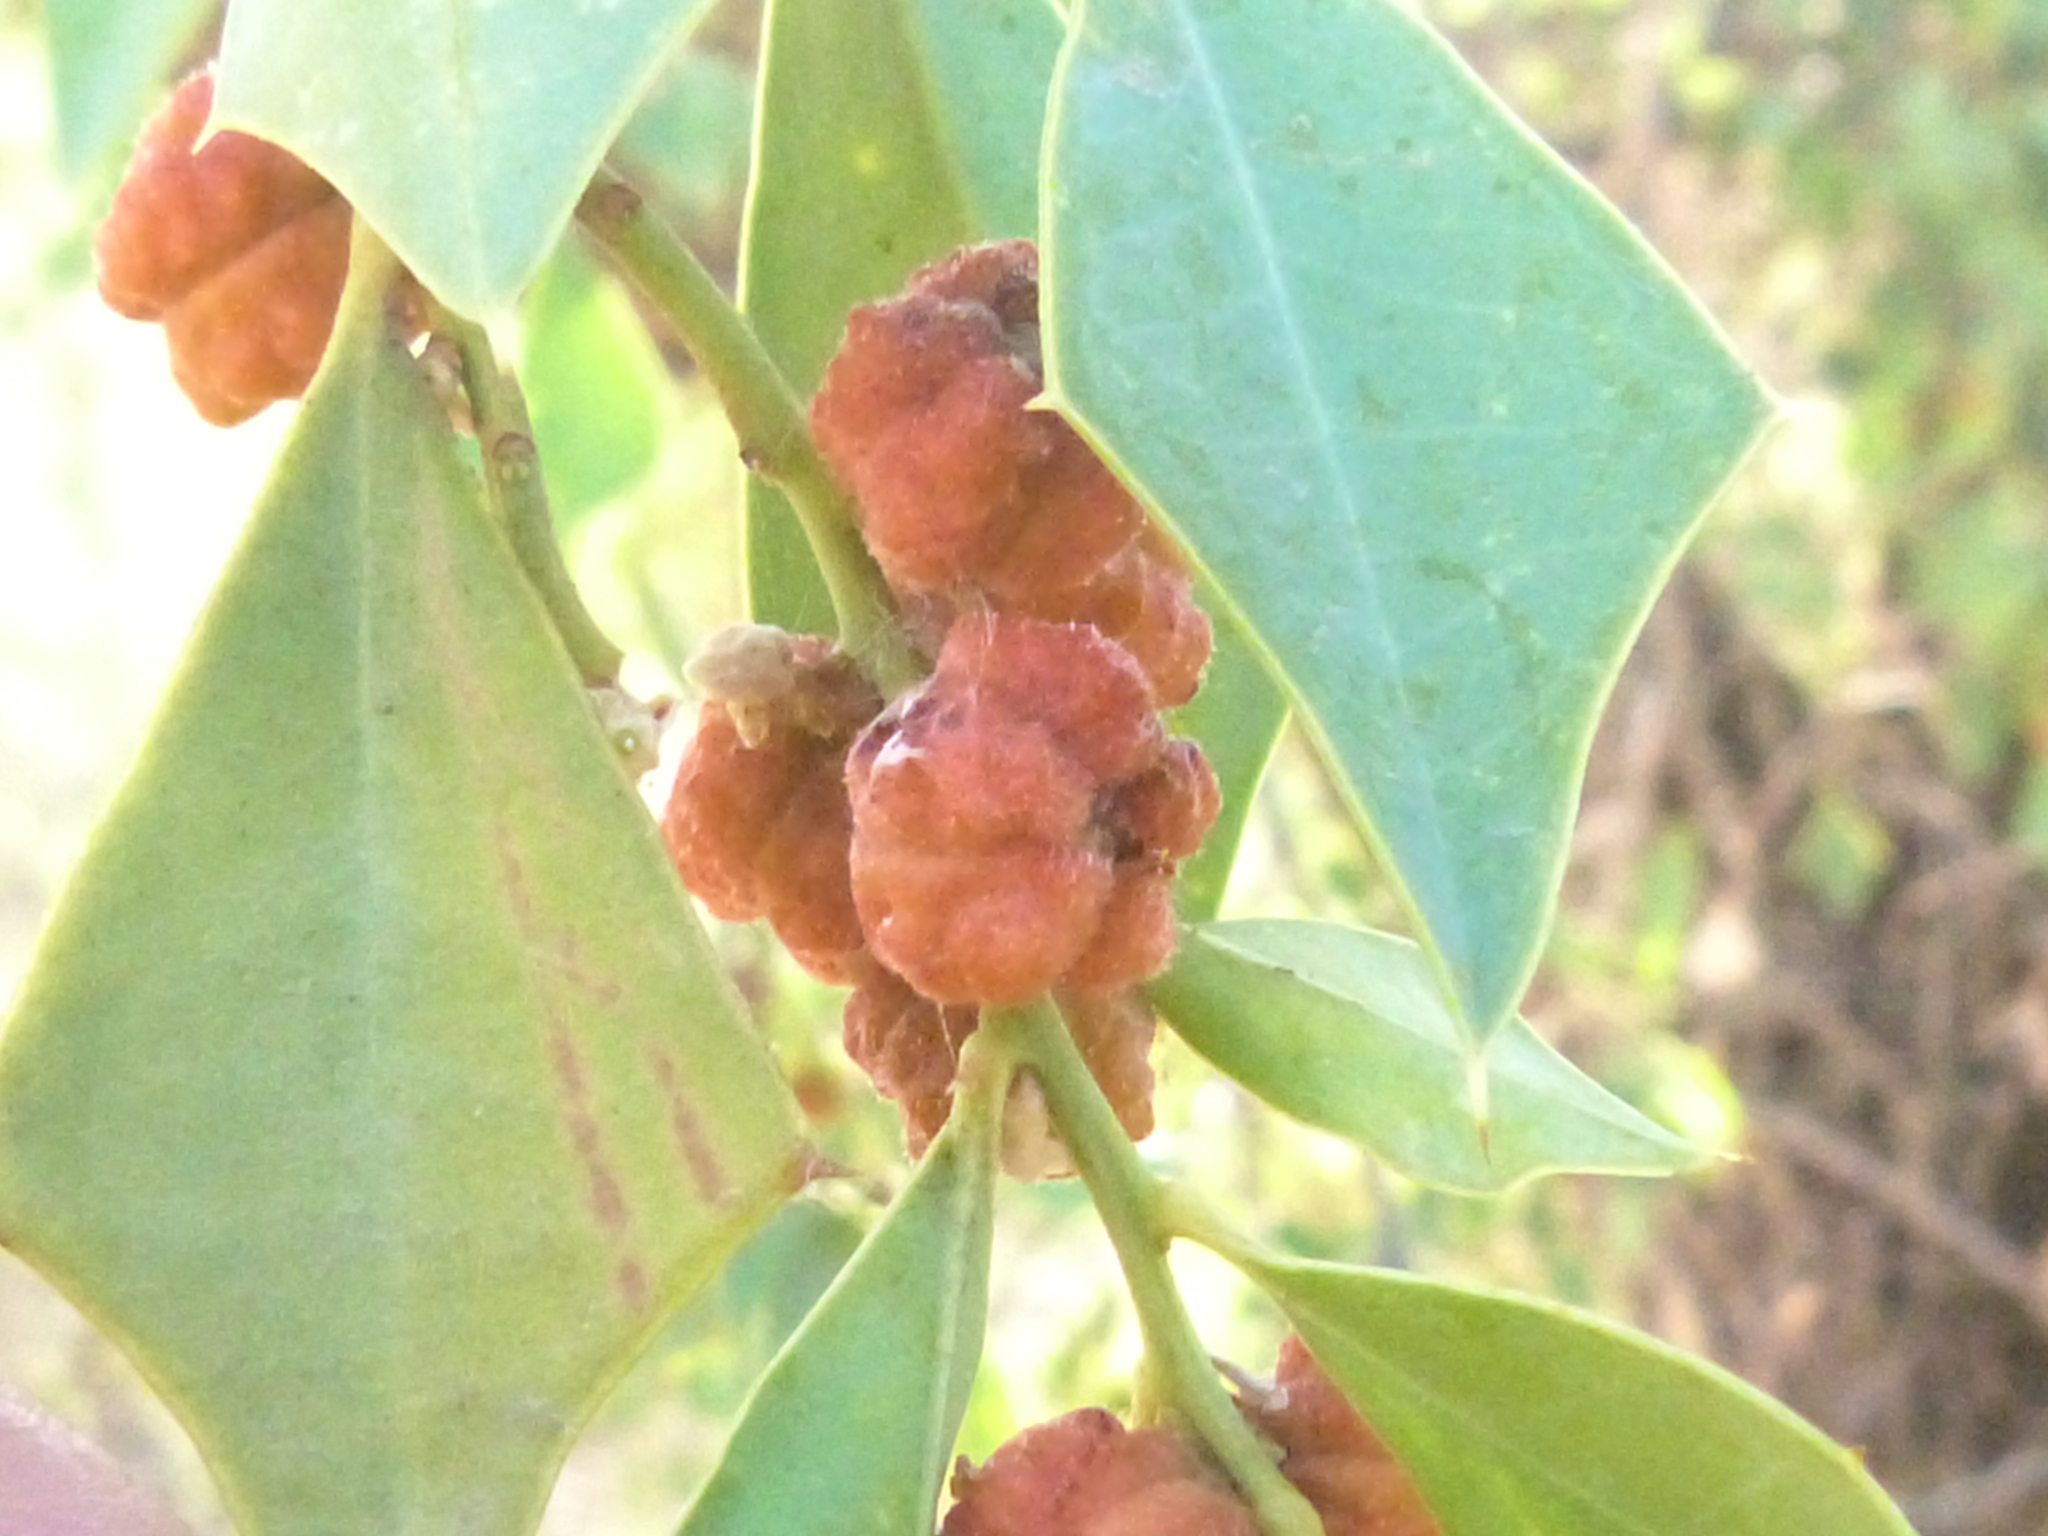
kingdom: Plantae
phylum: Tracheophyta
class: Magnoliopsida
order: Santalales
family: Cervantesiaceae
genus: Jodina
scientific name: Jodina rhombifolia
